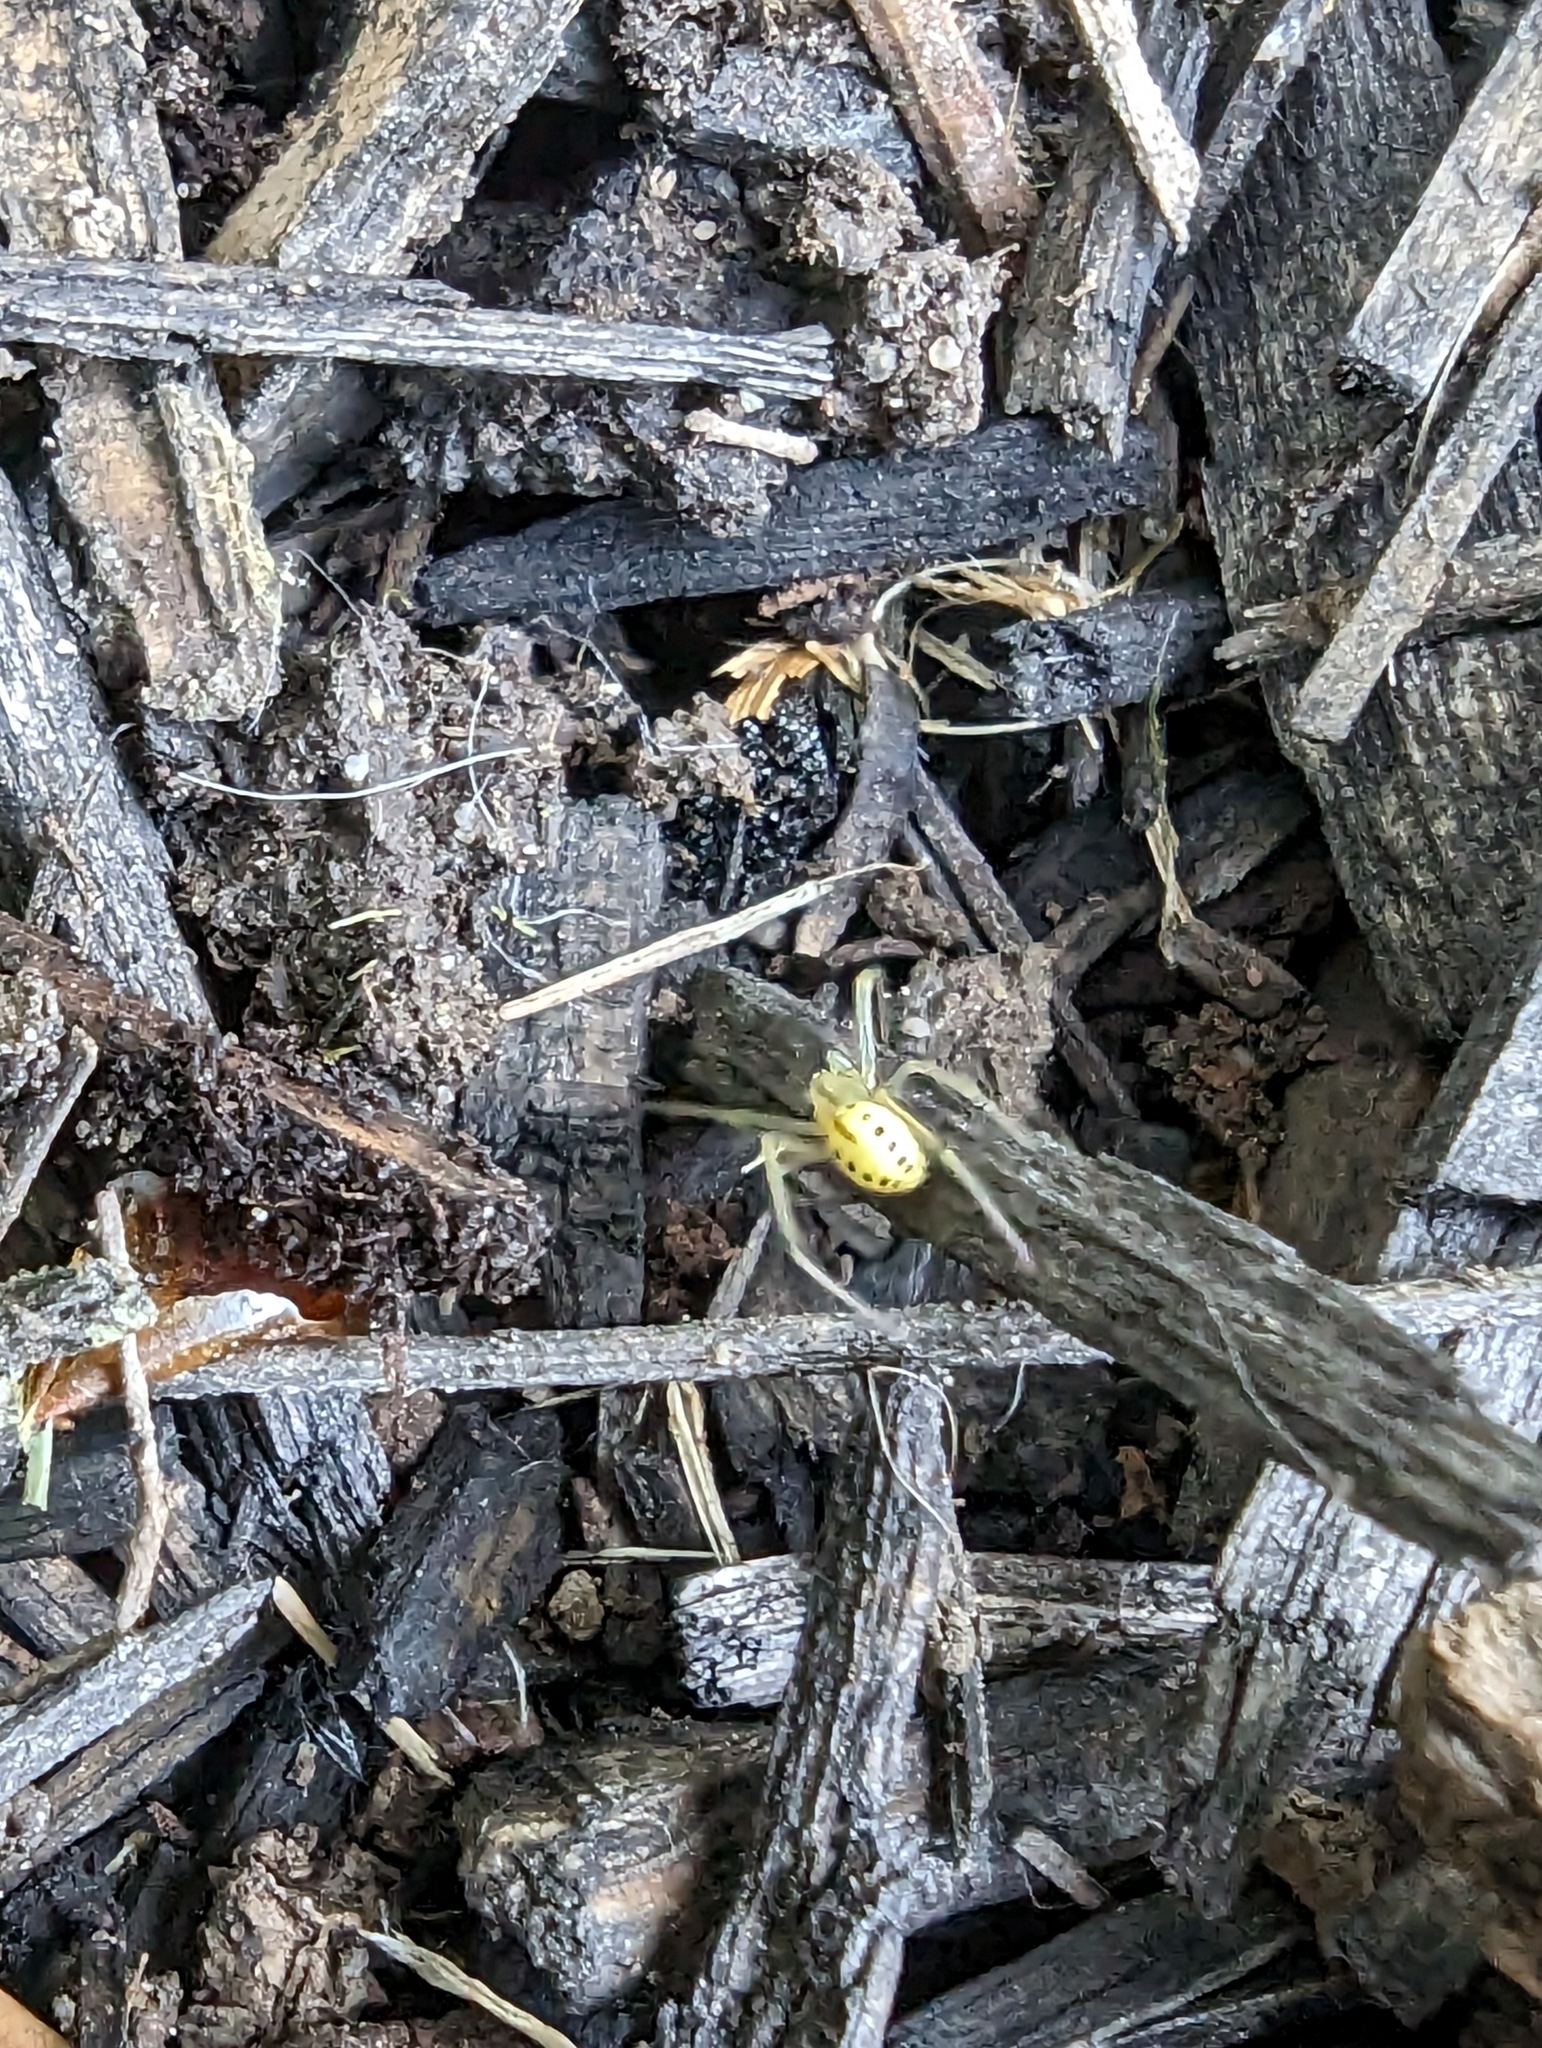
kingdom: Animalia
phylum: Arthropoda
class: Arachnida
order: Araneae
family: Theridiidae
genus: Enoplognatha
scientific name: Enoplognatha ovata
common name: Common candy-striped spider
